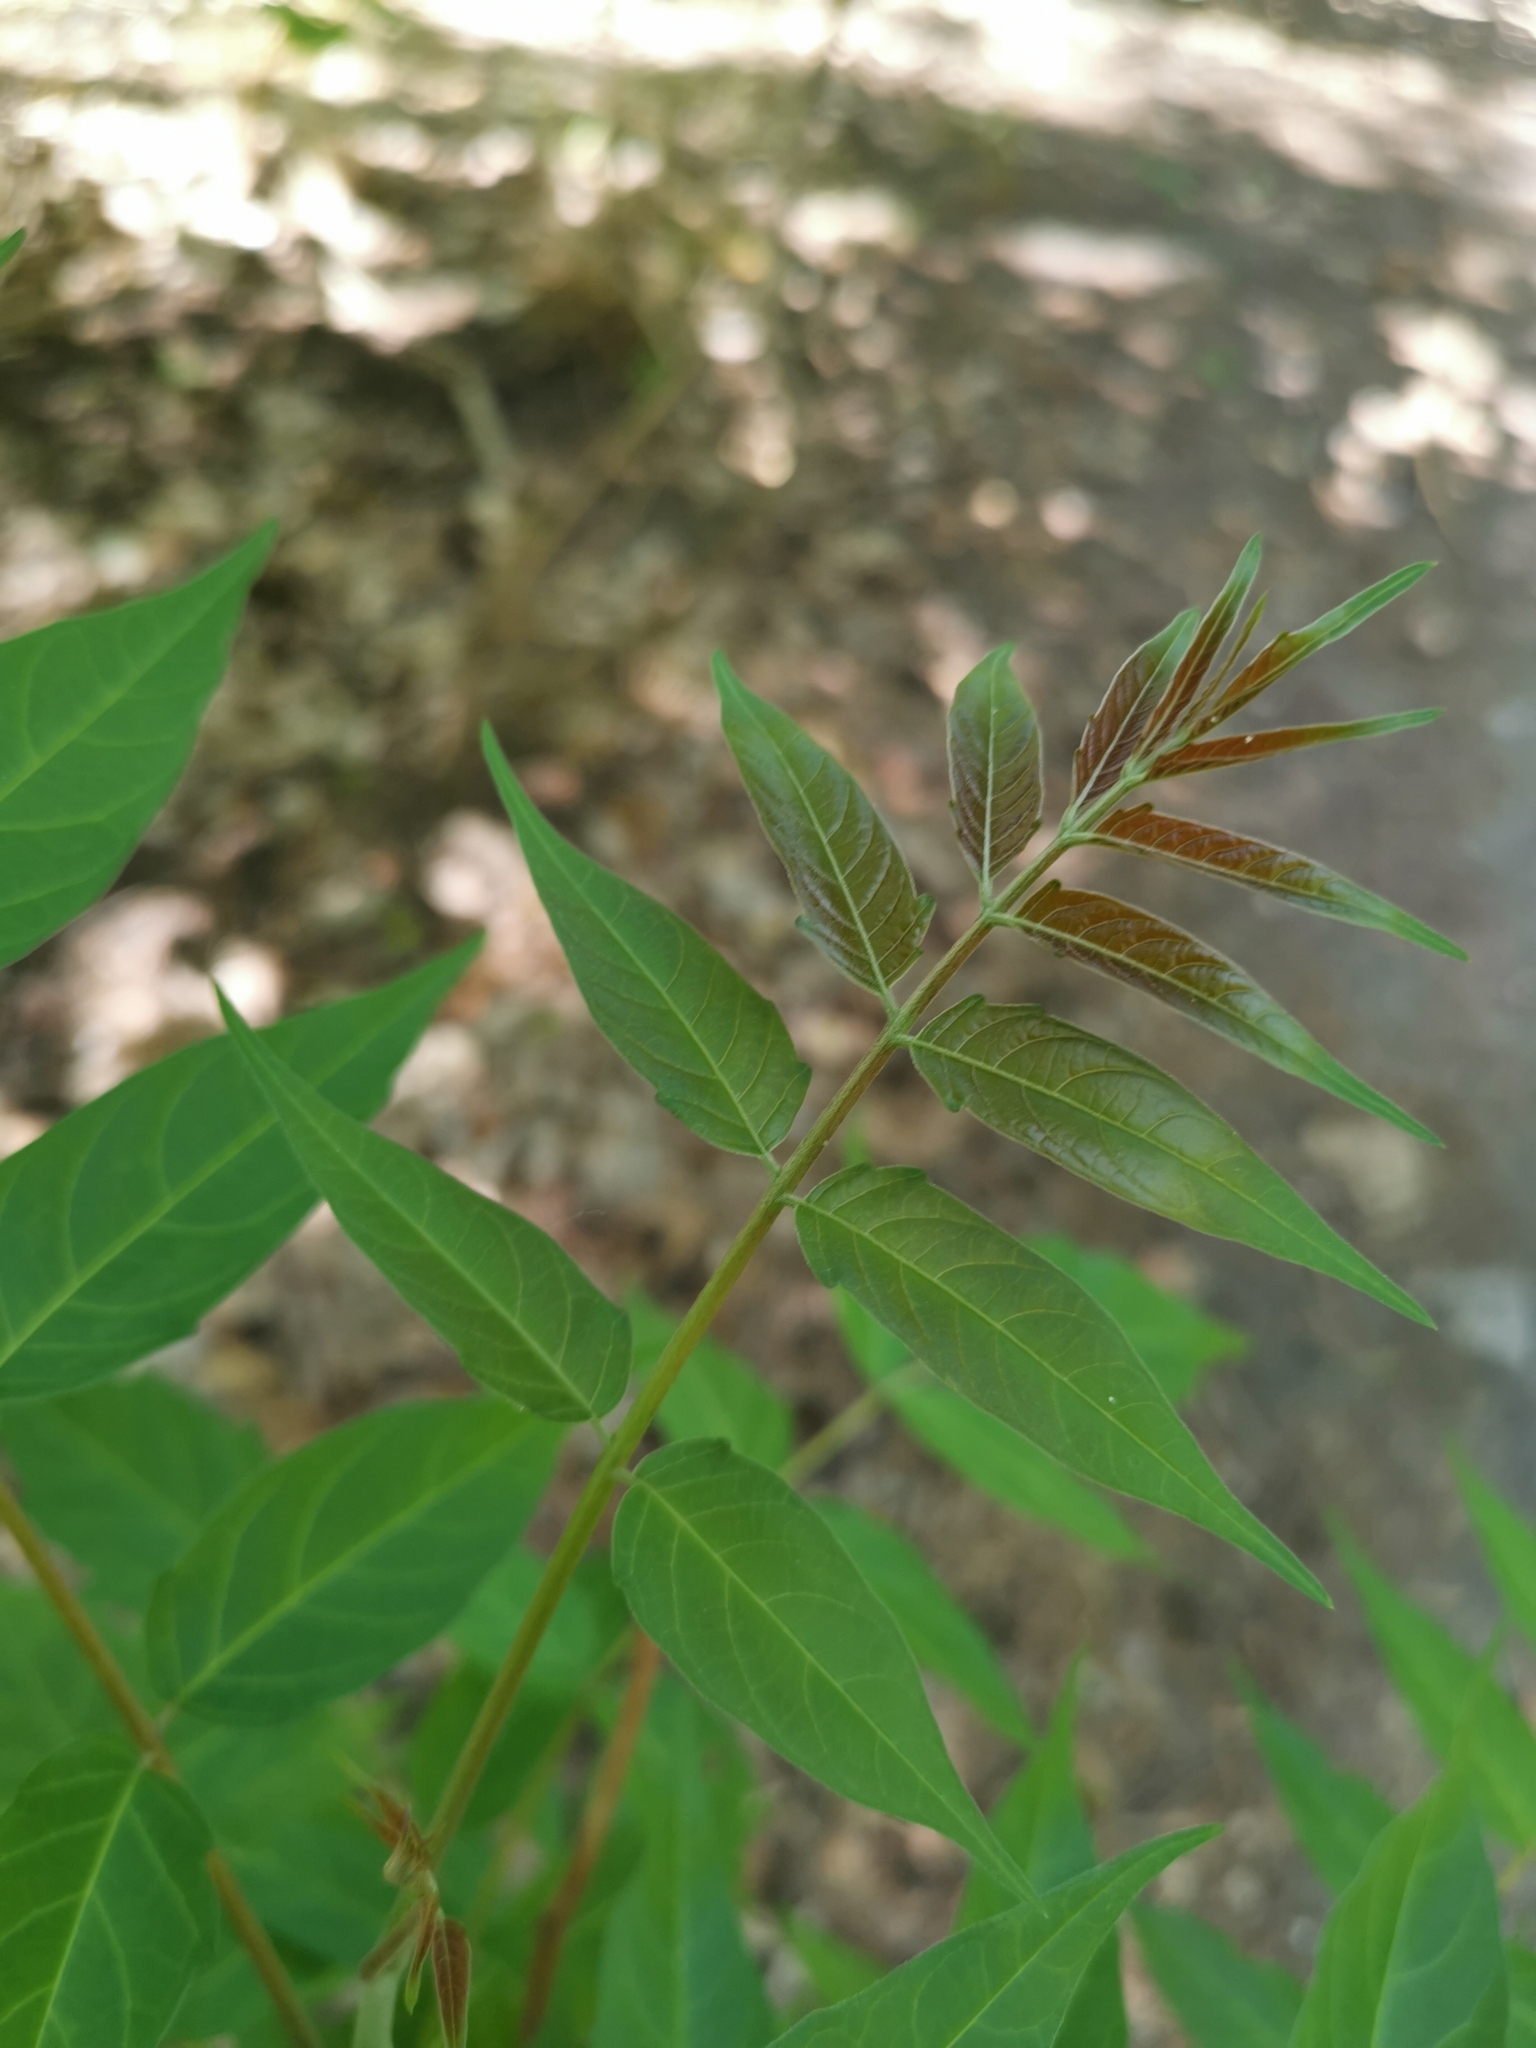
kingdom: Plantae
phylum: Tracheophyta
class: Magnoliopsida
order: Sapindales
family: Simaroubaceae
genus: Ailanthus
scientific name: Ailanthus altissima
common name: Tree-of-heaven
